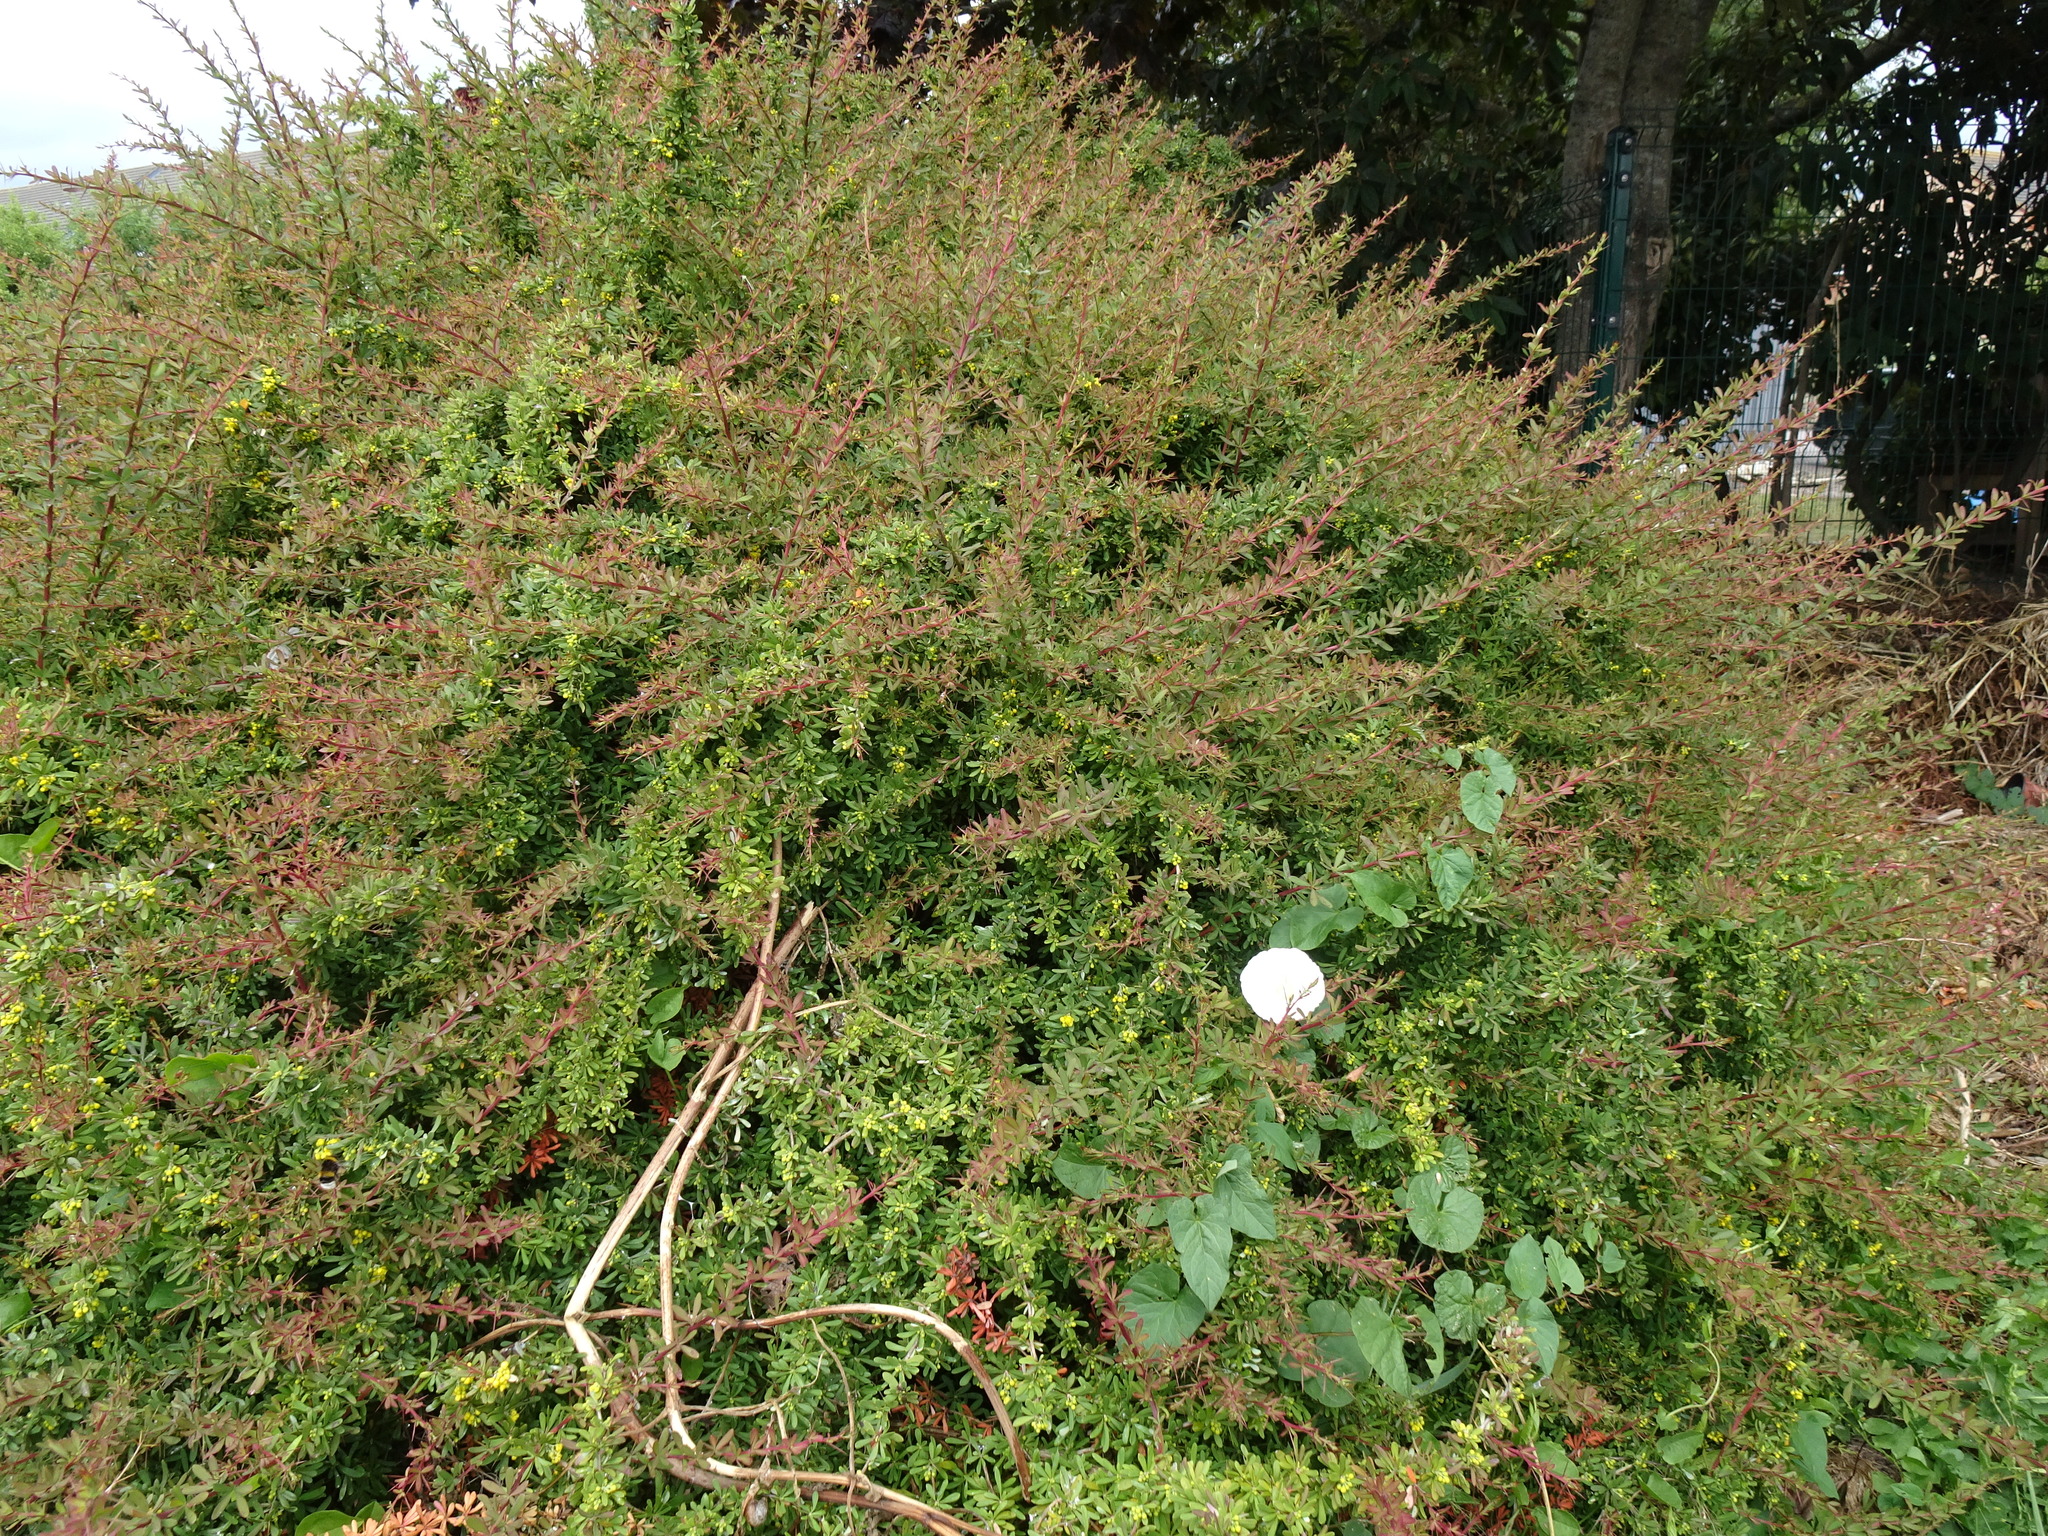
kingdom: Plantae
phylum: Tracheophyta
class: Magnoliopsida
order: Ranunculales
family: Berberidaceae
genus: Berberis
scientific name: Berberis wilsoniae
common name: Mrs wilson's barberry
